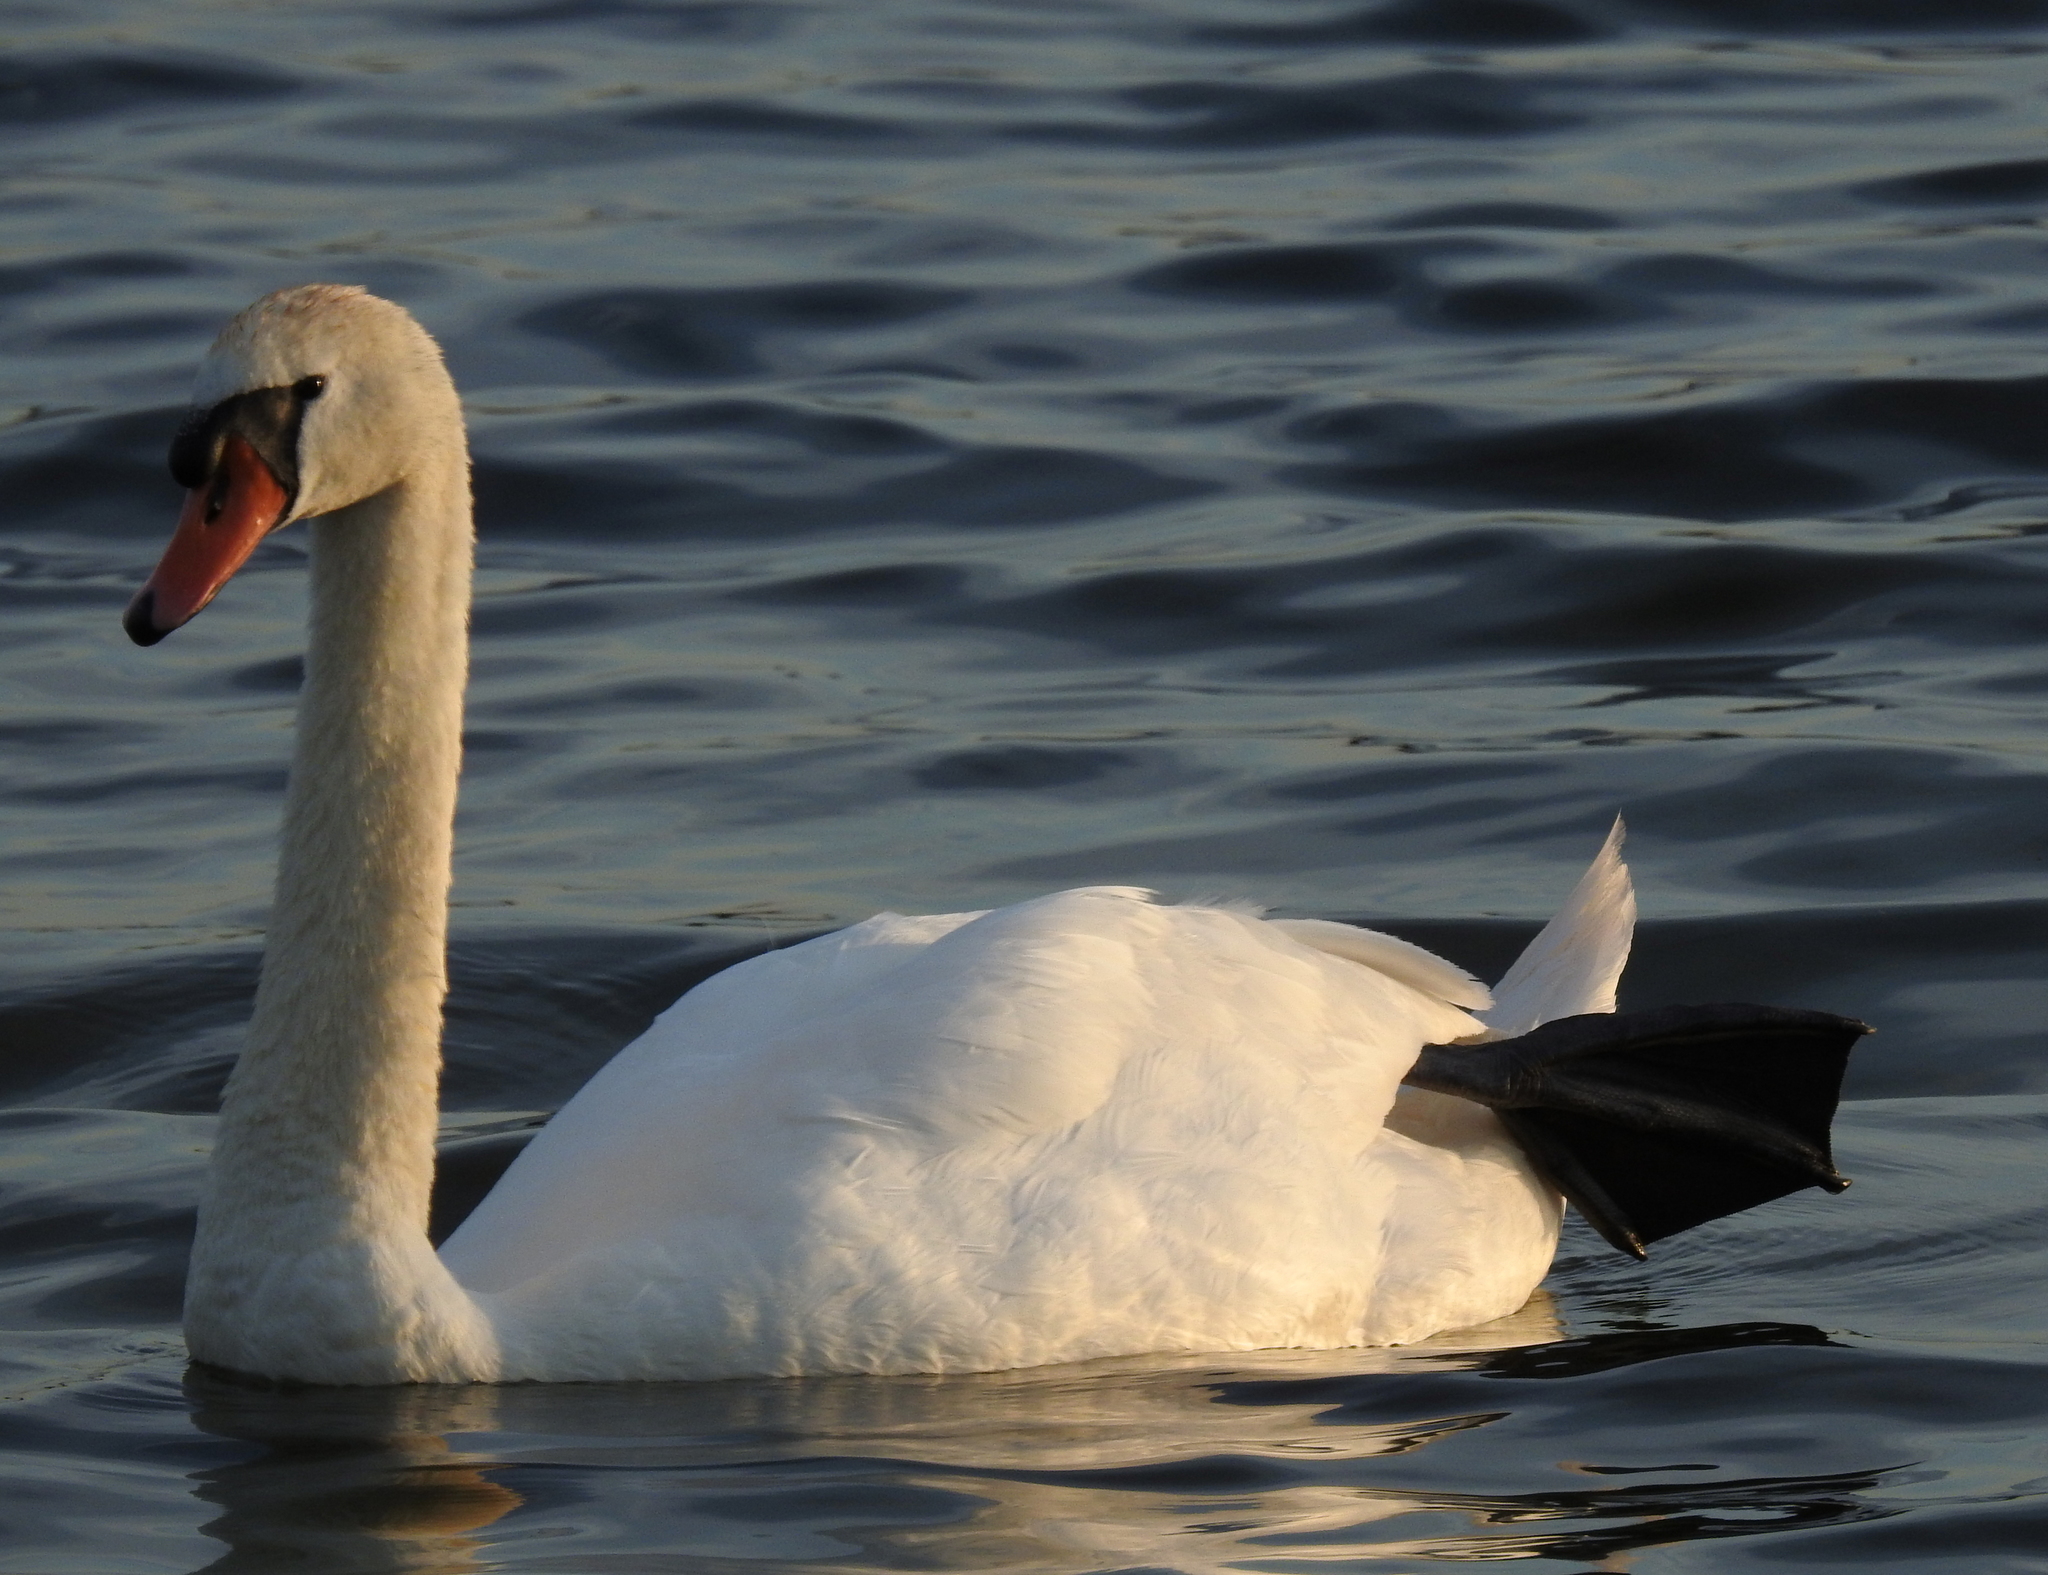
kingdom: Animalia
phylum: Chordata
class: Aves
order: Anseriformes
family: Anatidae
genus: Cygnus
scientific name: Cygnus olor
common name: Mute swan
